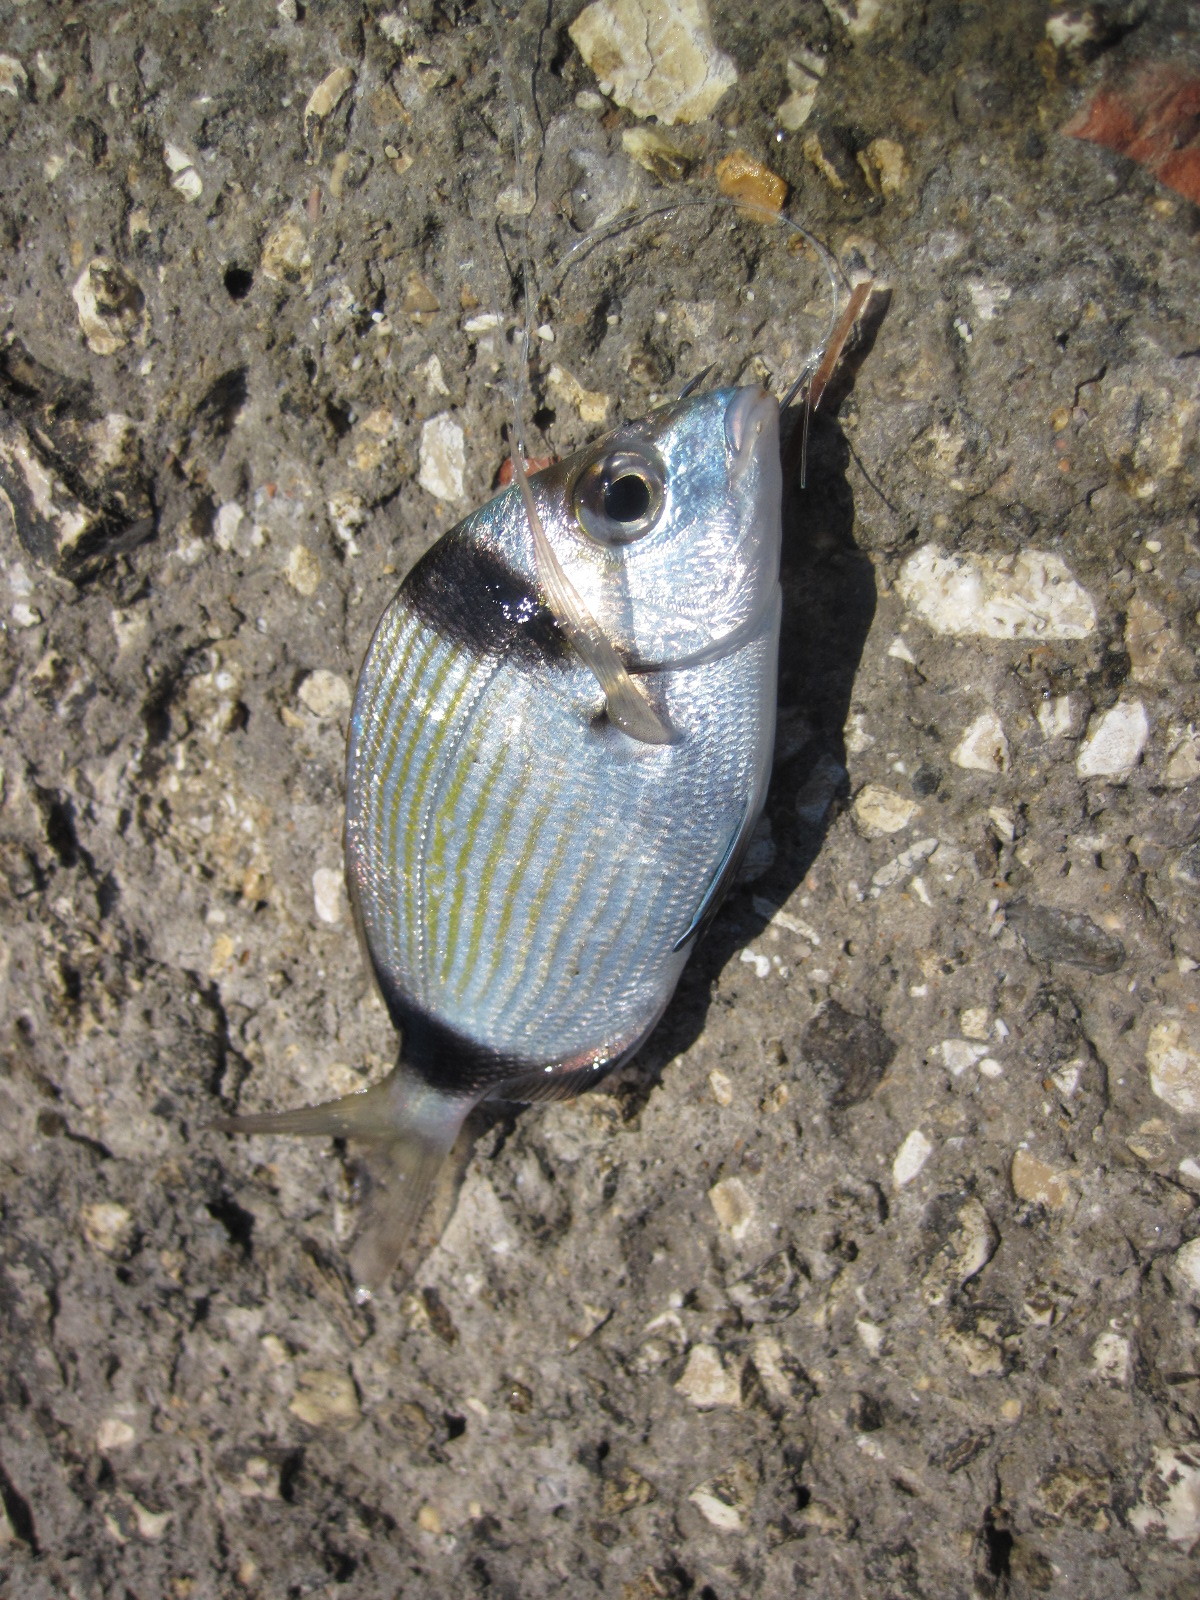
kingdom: Animalia
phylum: Chordata
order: Perciformes
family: Sparidae
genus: Diplodus
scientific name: Diplodus vulgaris
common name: Common two-banded seabream
